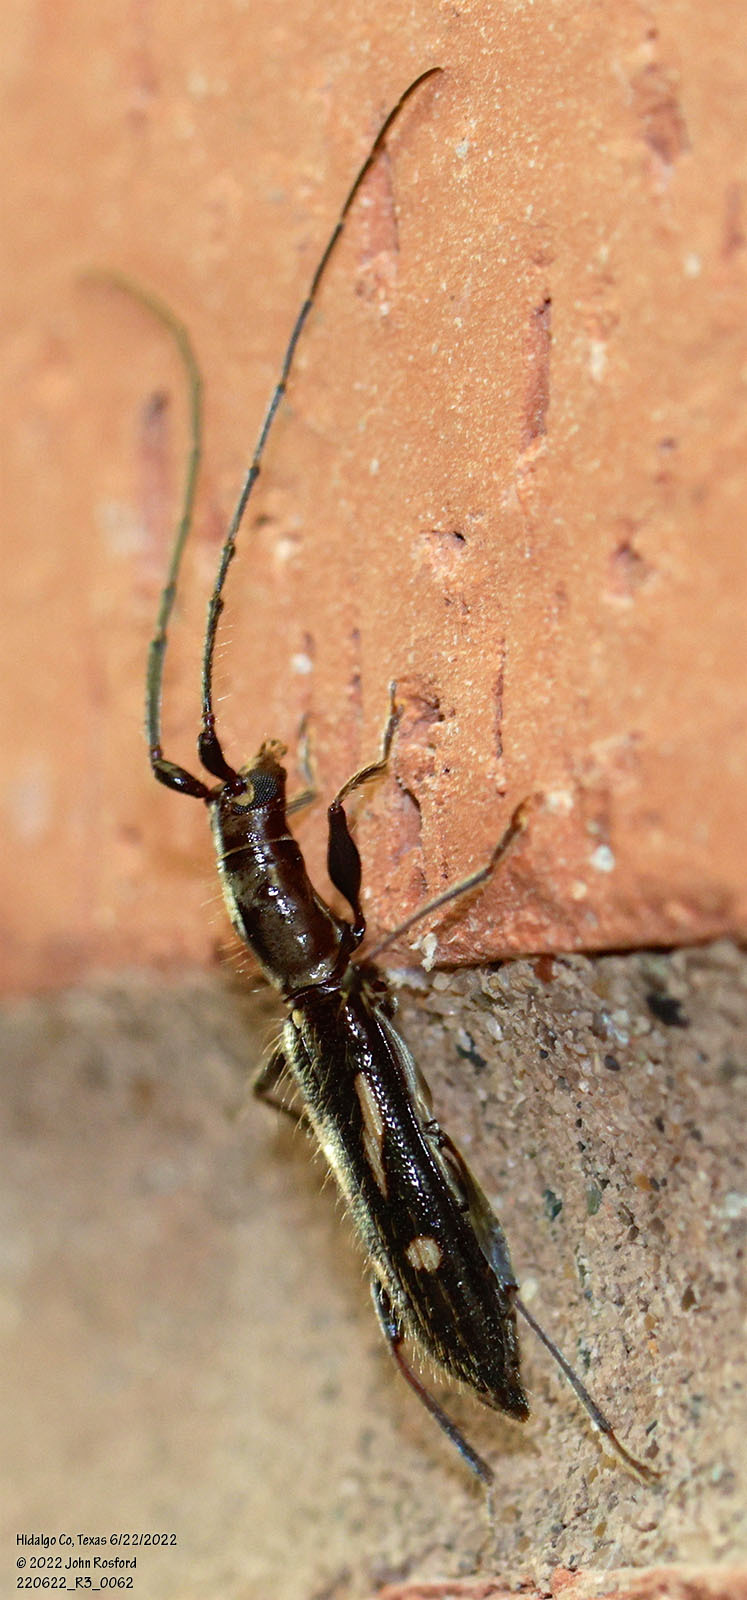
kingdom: Animalia
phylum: Arthropoda
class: Insecta
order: Coleoptera
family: Cerambycidae
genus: Neocompsa
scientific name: Neocompsa exclamationis
